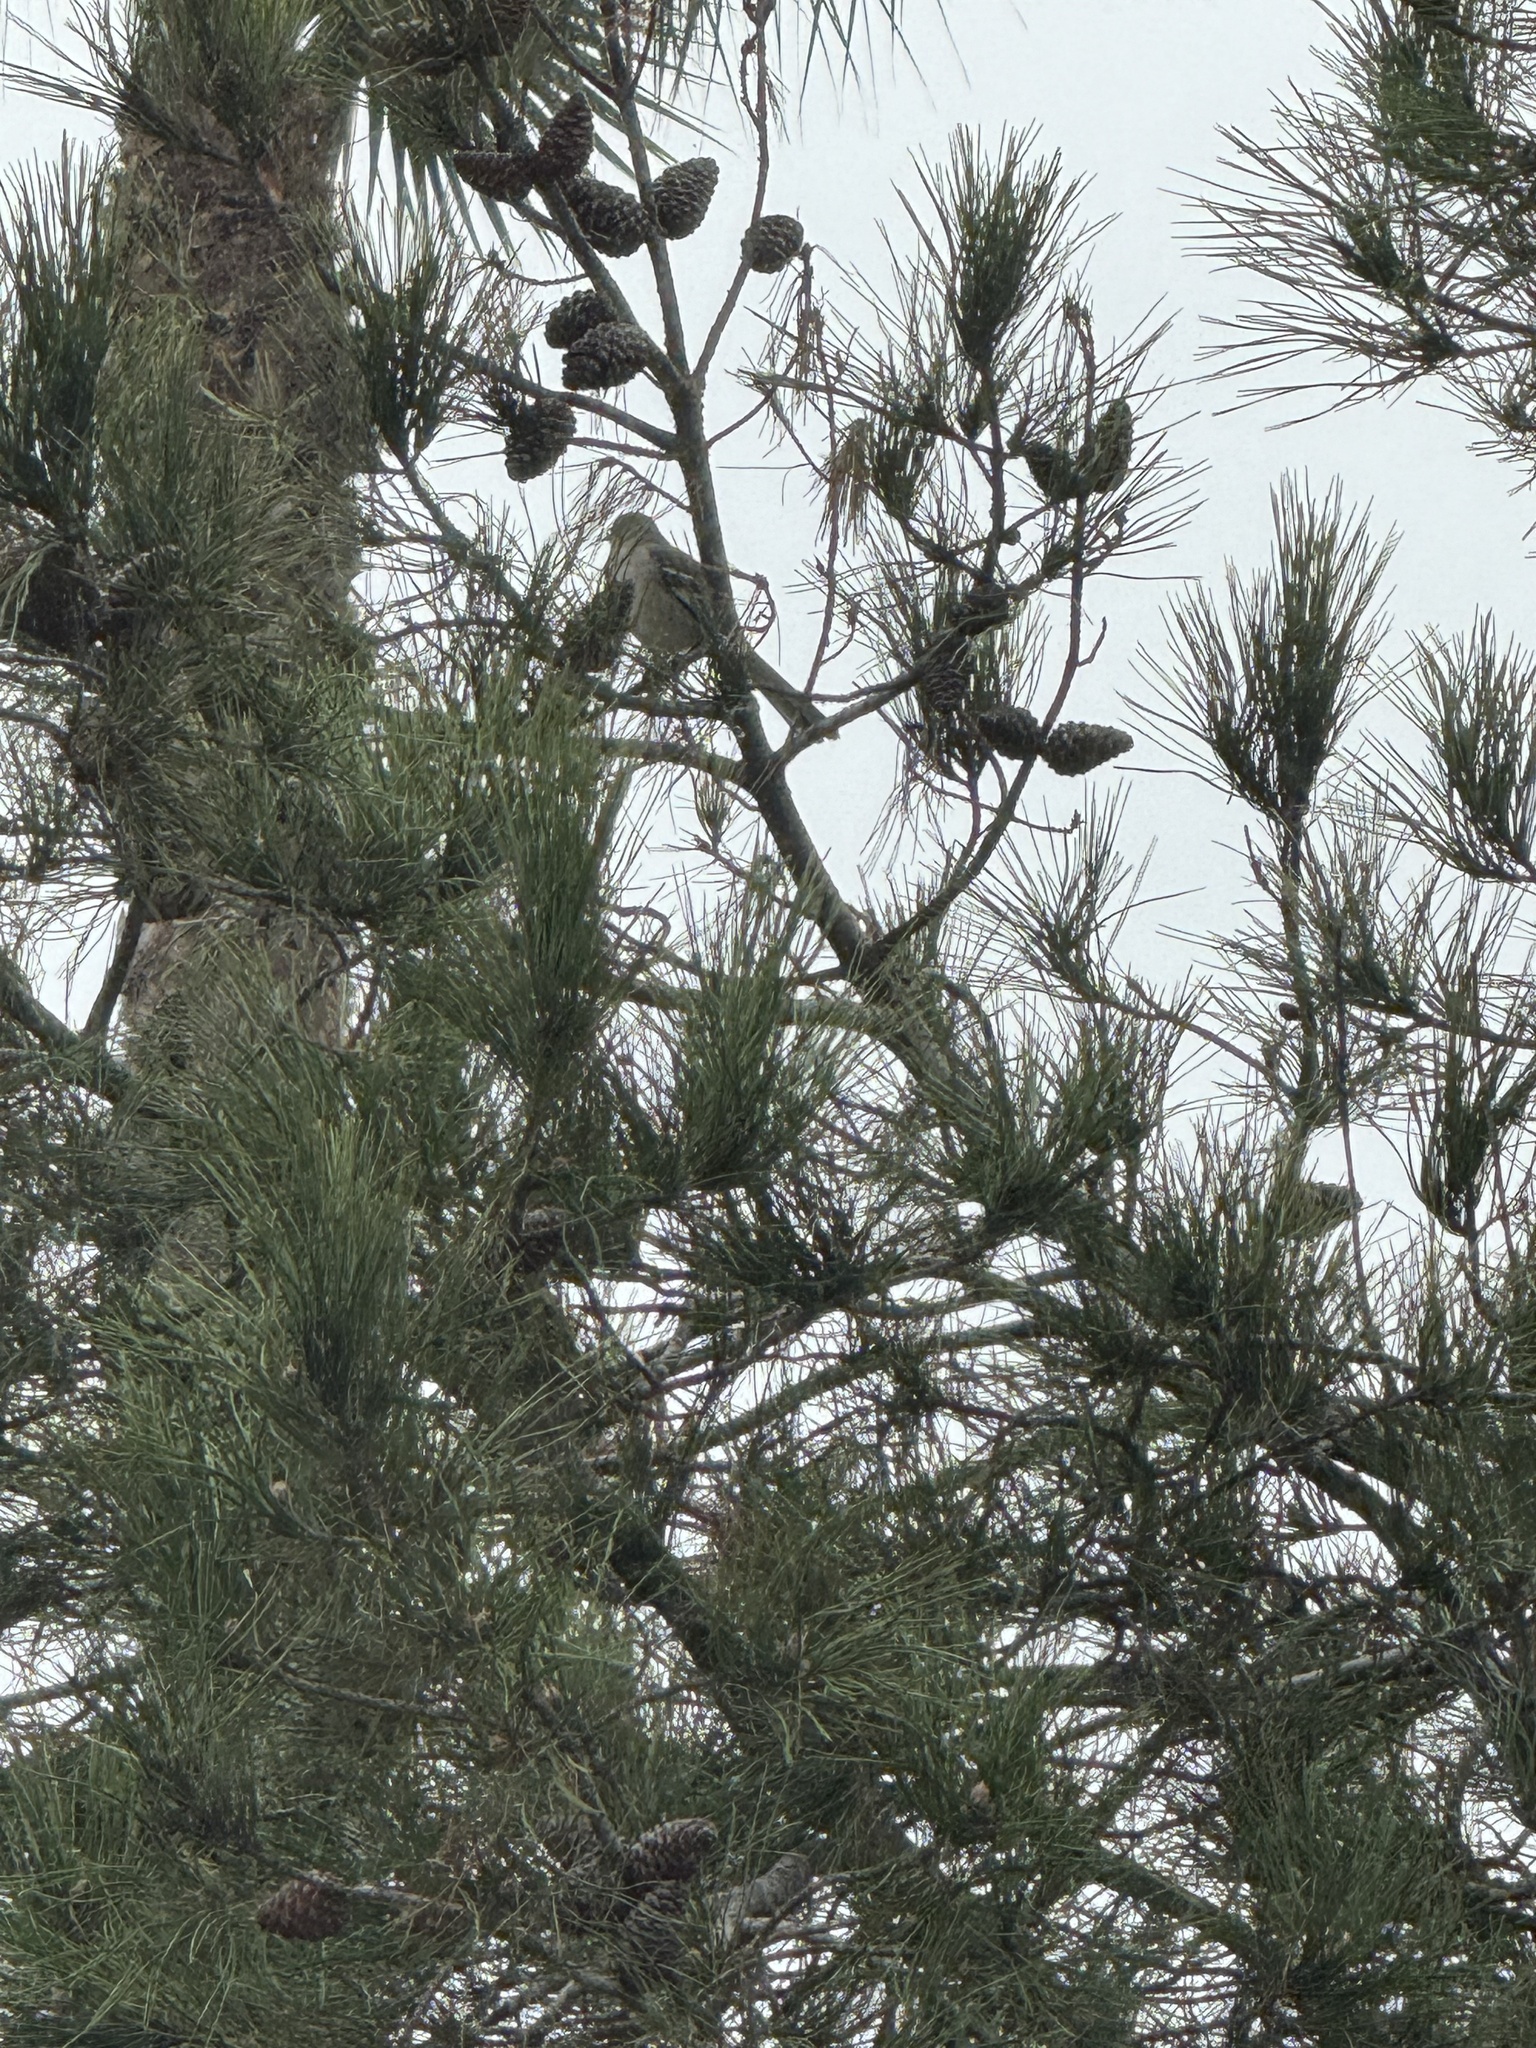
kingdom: Animalia
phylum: Chordata
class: Aves
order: Passeriformes
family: Mimidae
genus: Mimus
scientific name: Mimus polyglottos
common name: Northern mockingbird
